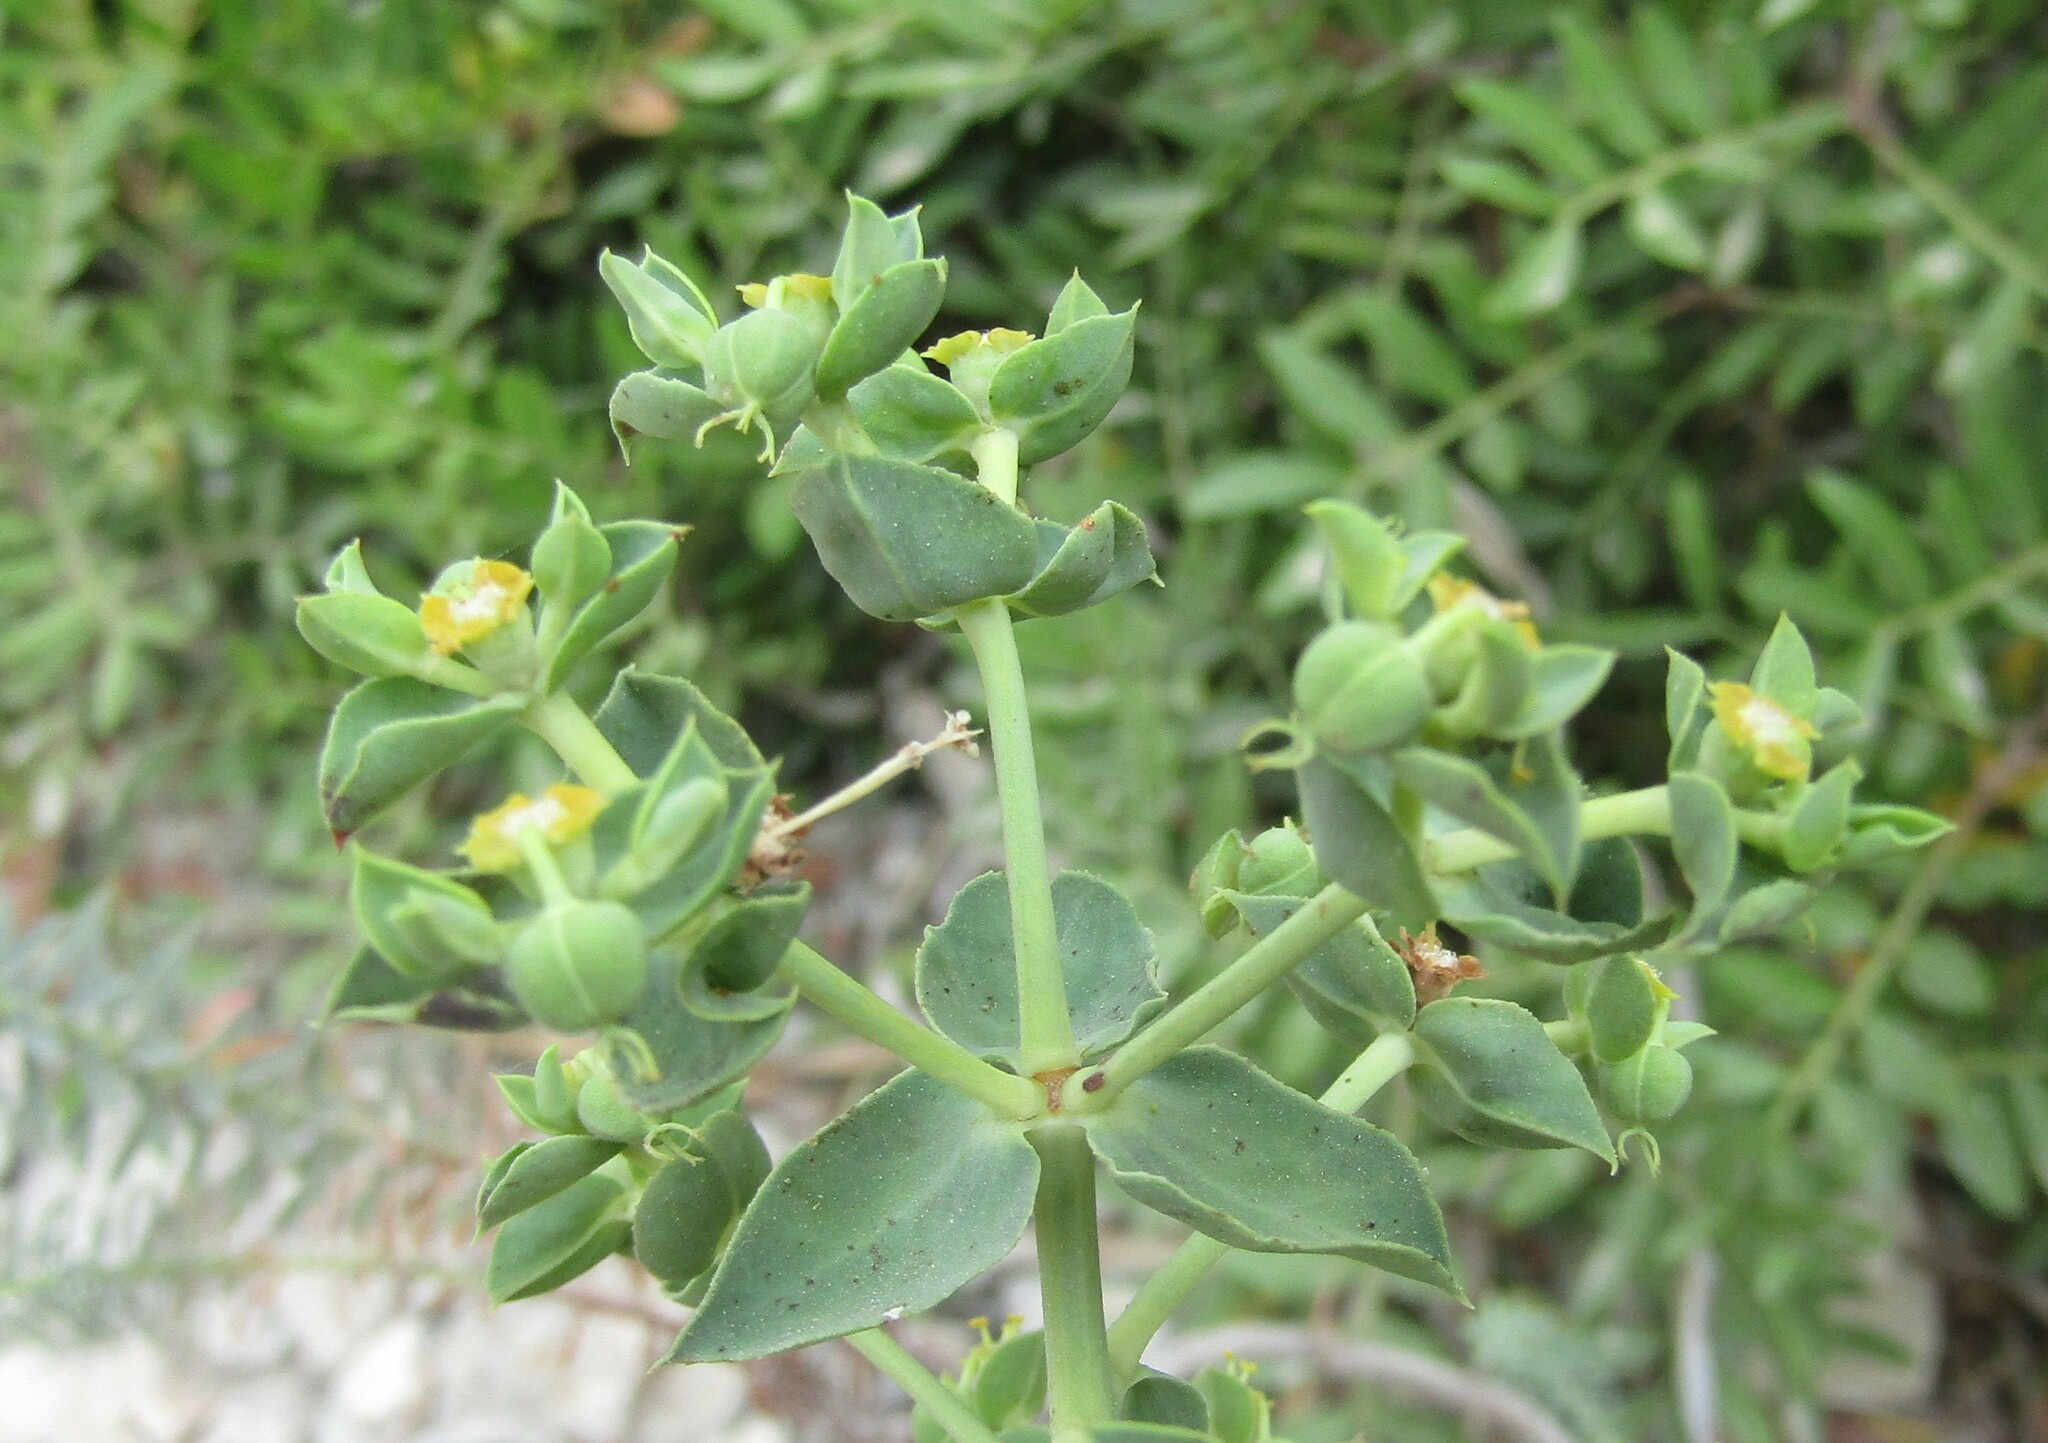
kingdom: Plantae
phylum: Tracheophyta
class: Magnoliopsida
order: Malpighiales
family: Euphorbiaceae
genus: Euphorbia
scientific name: Euphorbia pithyusa
